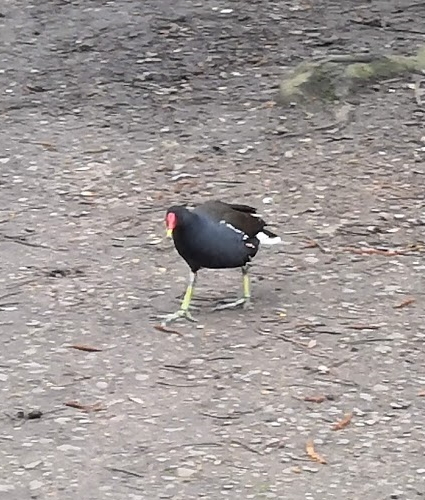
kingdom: Animalia
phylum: Chordata
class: Aves
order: Gruiformes
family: Rallidae
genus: Gallinula
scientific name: Gallinula chloropus
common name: Common moorhen
